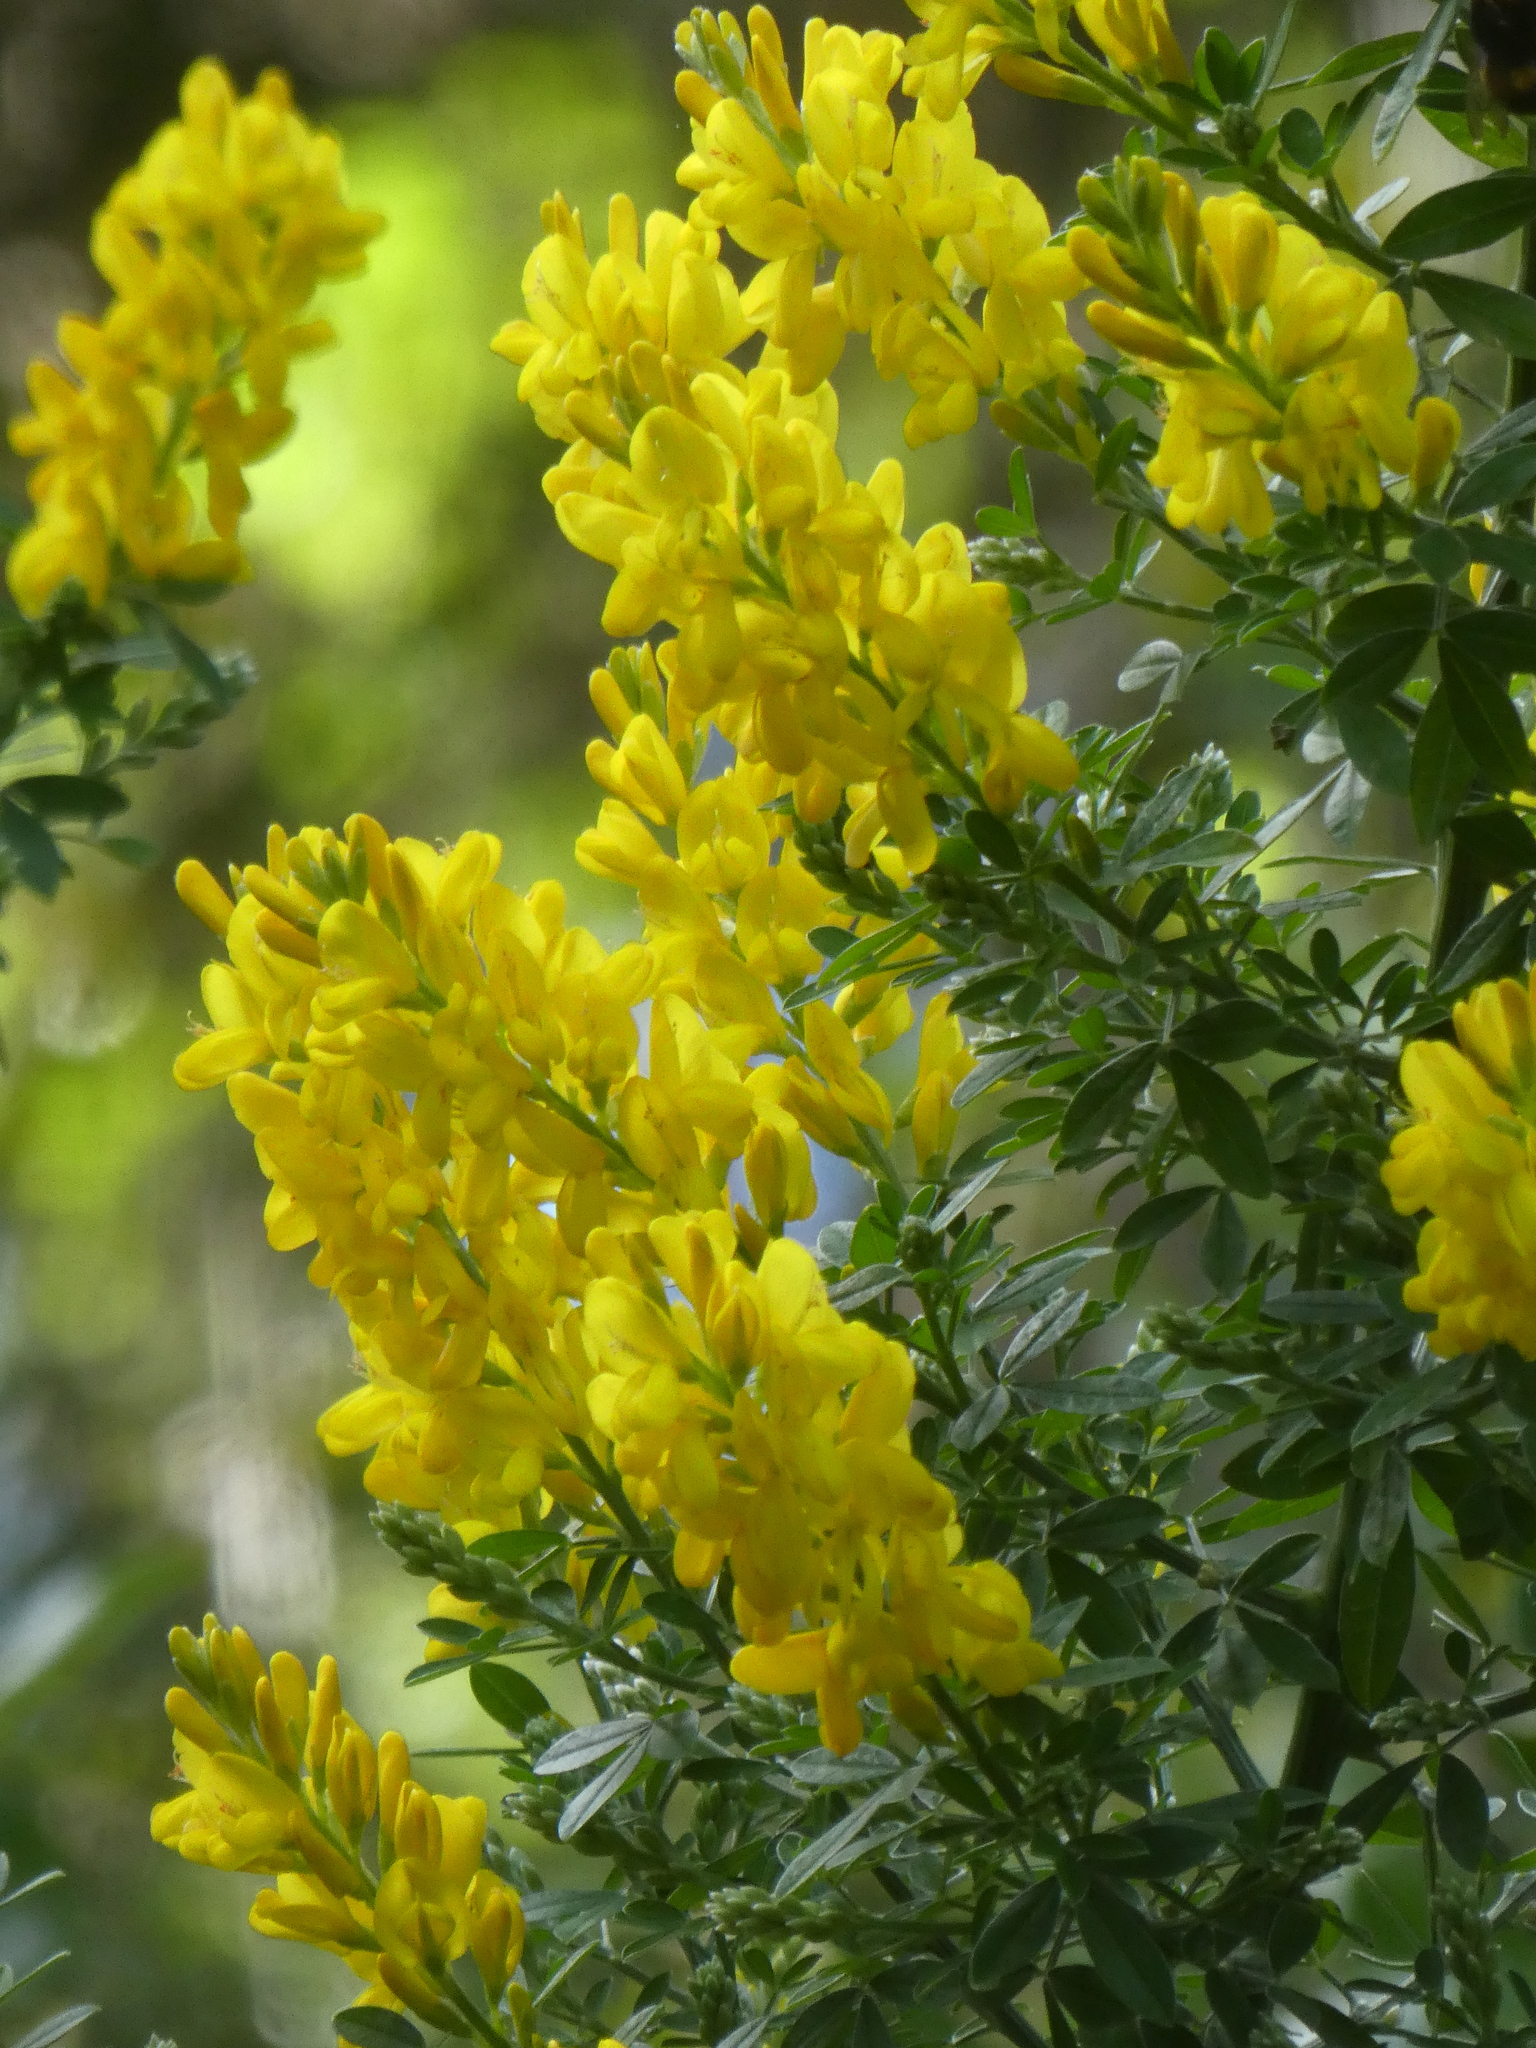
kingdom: Plantae
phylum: Tracheophyta
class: Magnoliopsida
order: Fabales
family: Fabaceae
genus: Genista
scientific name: Genista monspessulana
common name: Montpellier broom
